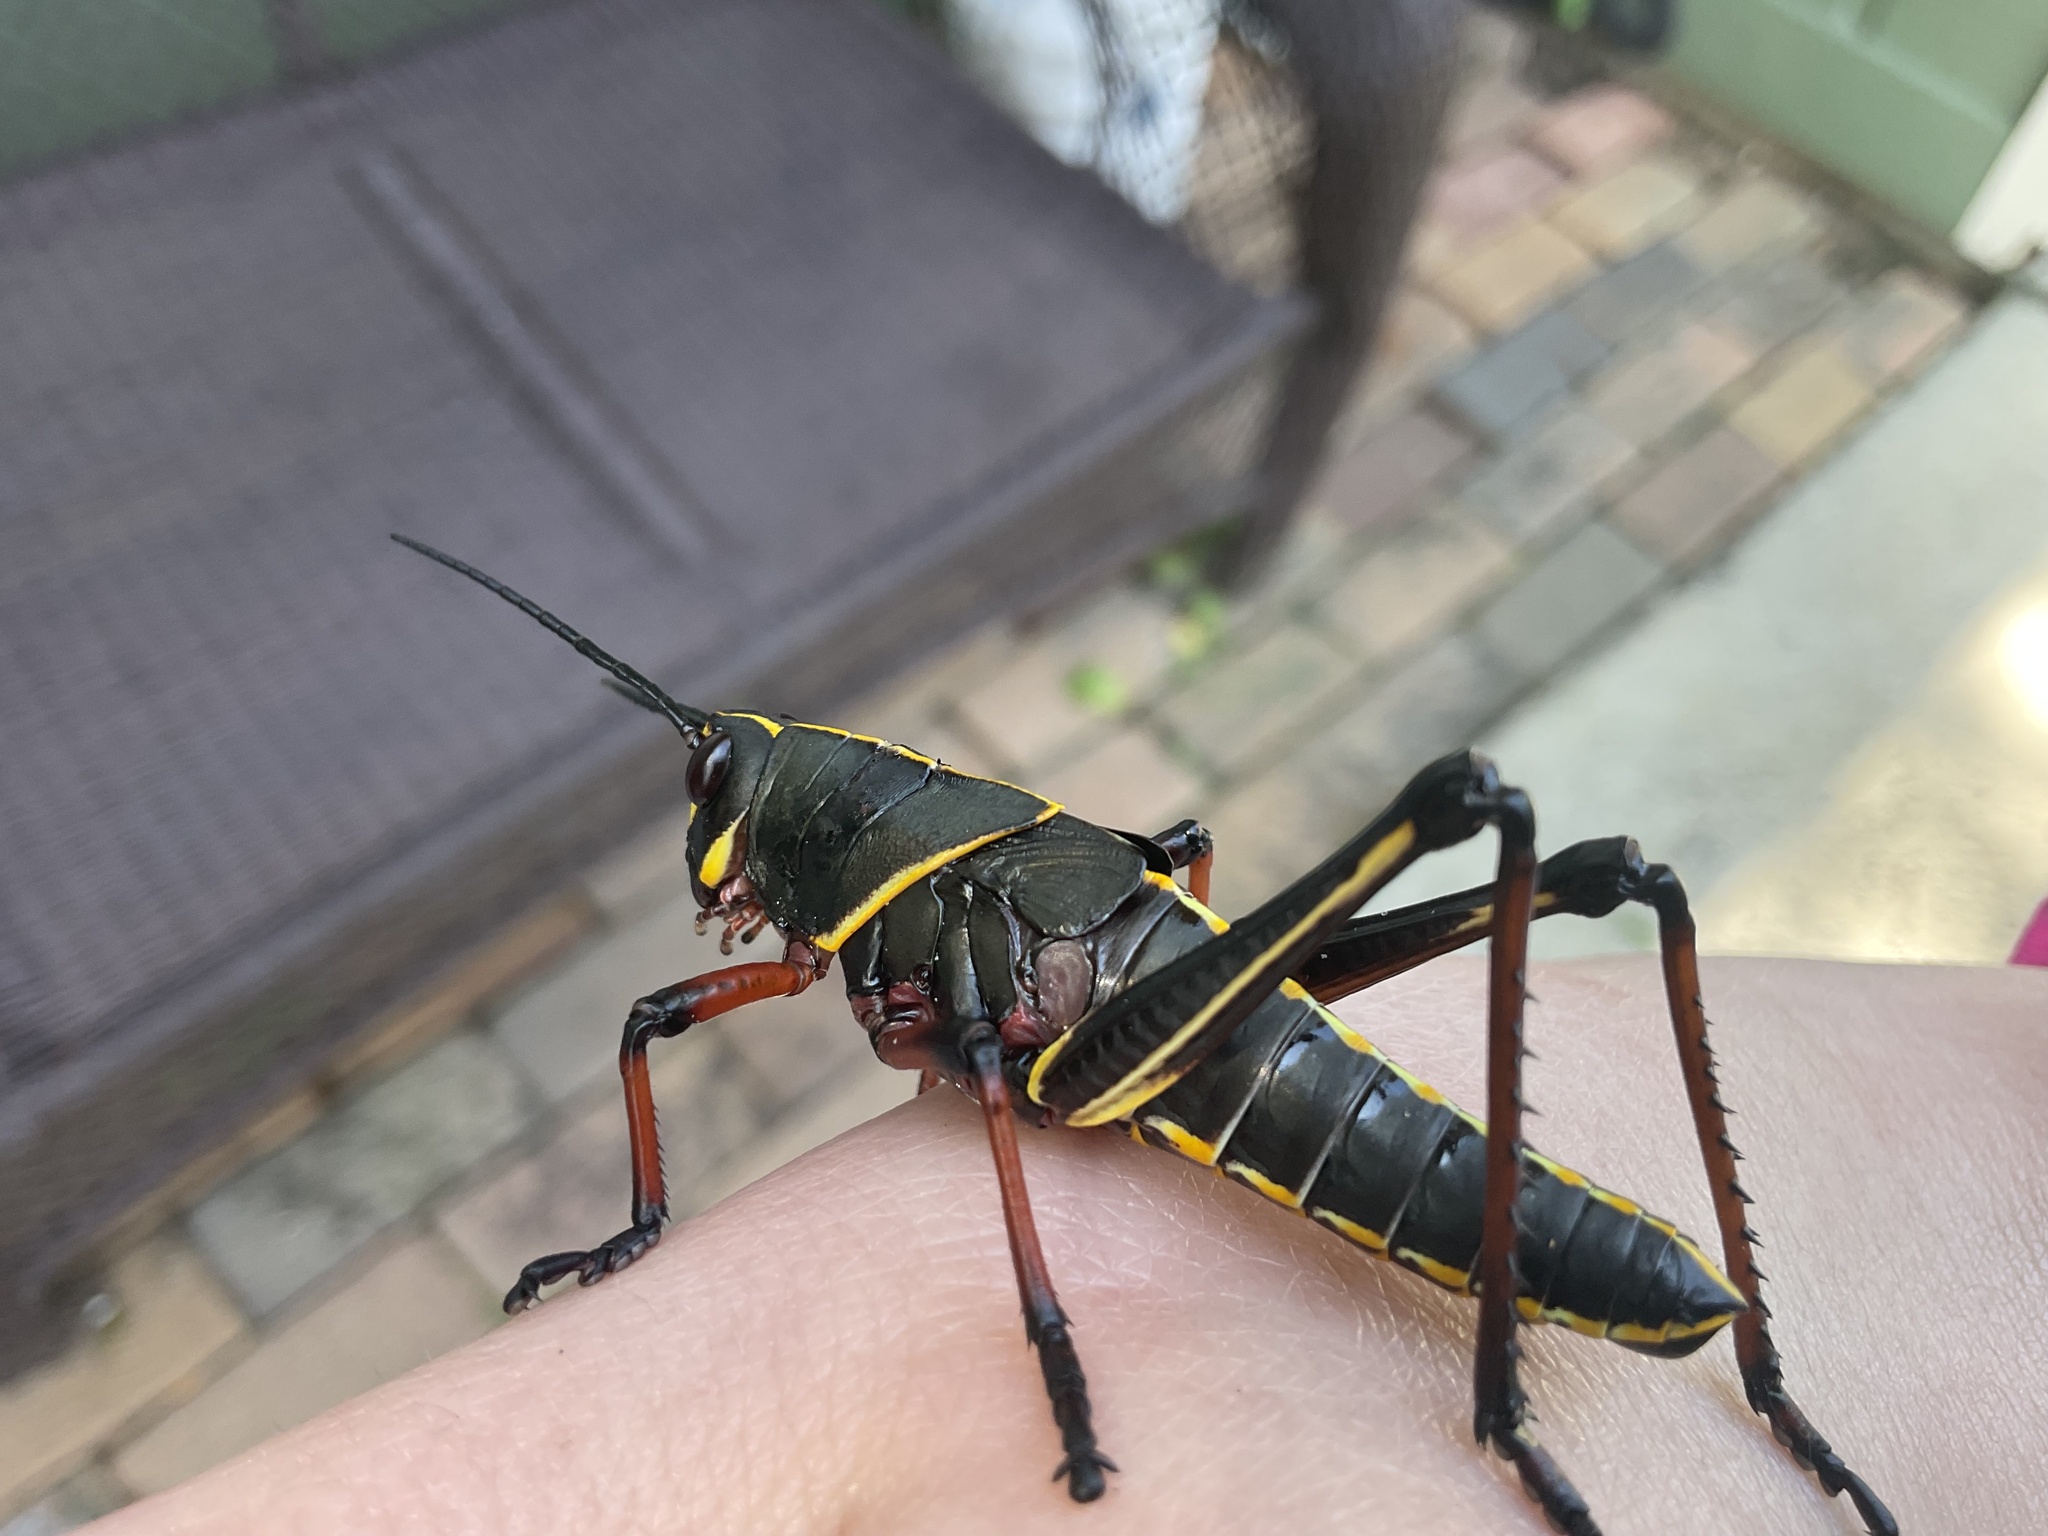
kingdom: Animalia
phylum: Arthropoda
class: Insecta
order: Orthoptera
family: Romaleidae
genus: Romalea
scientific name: Romalea microptera
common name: Eastern lubber grasshopper
